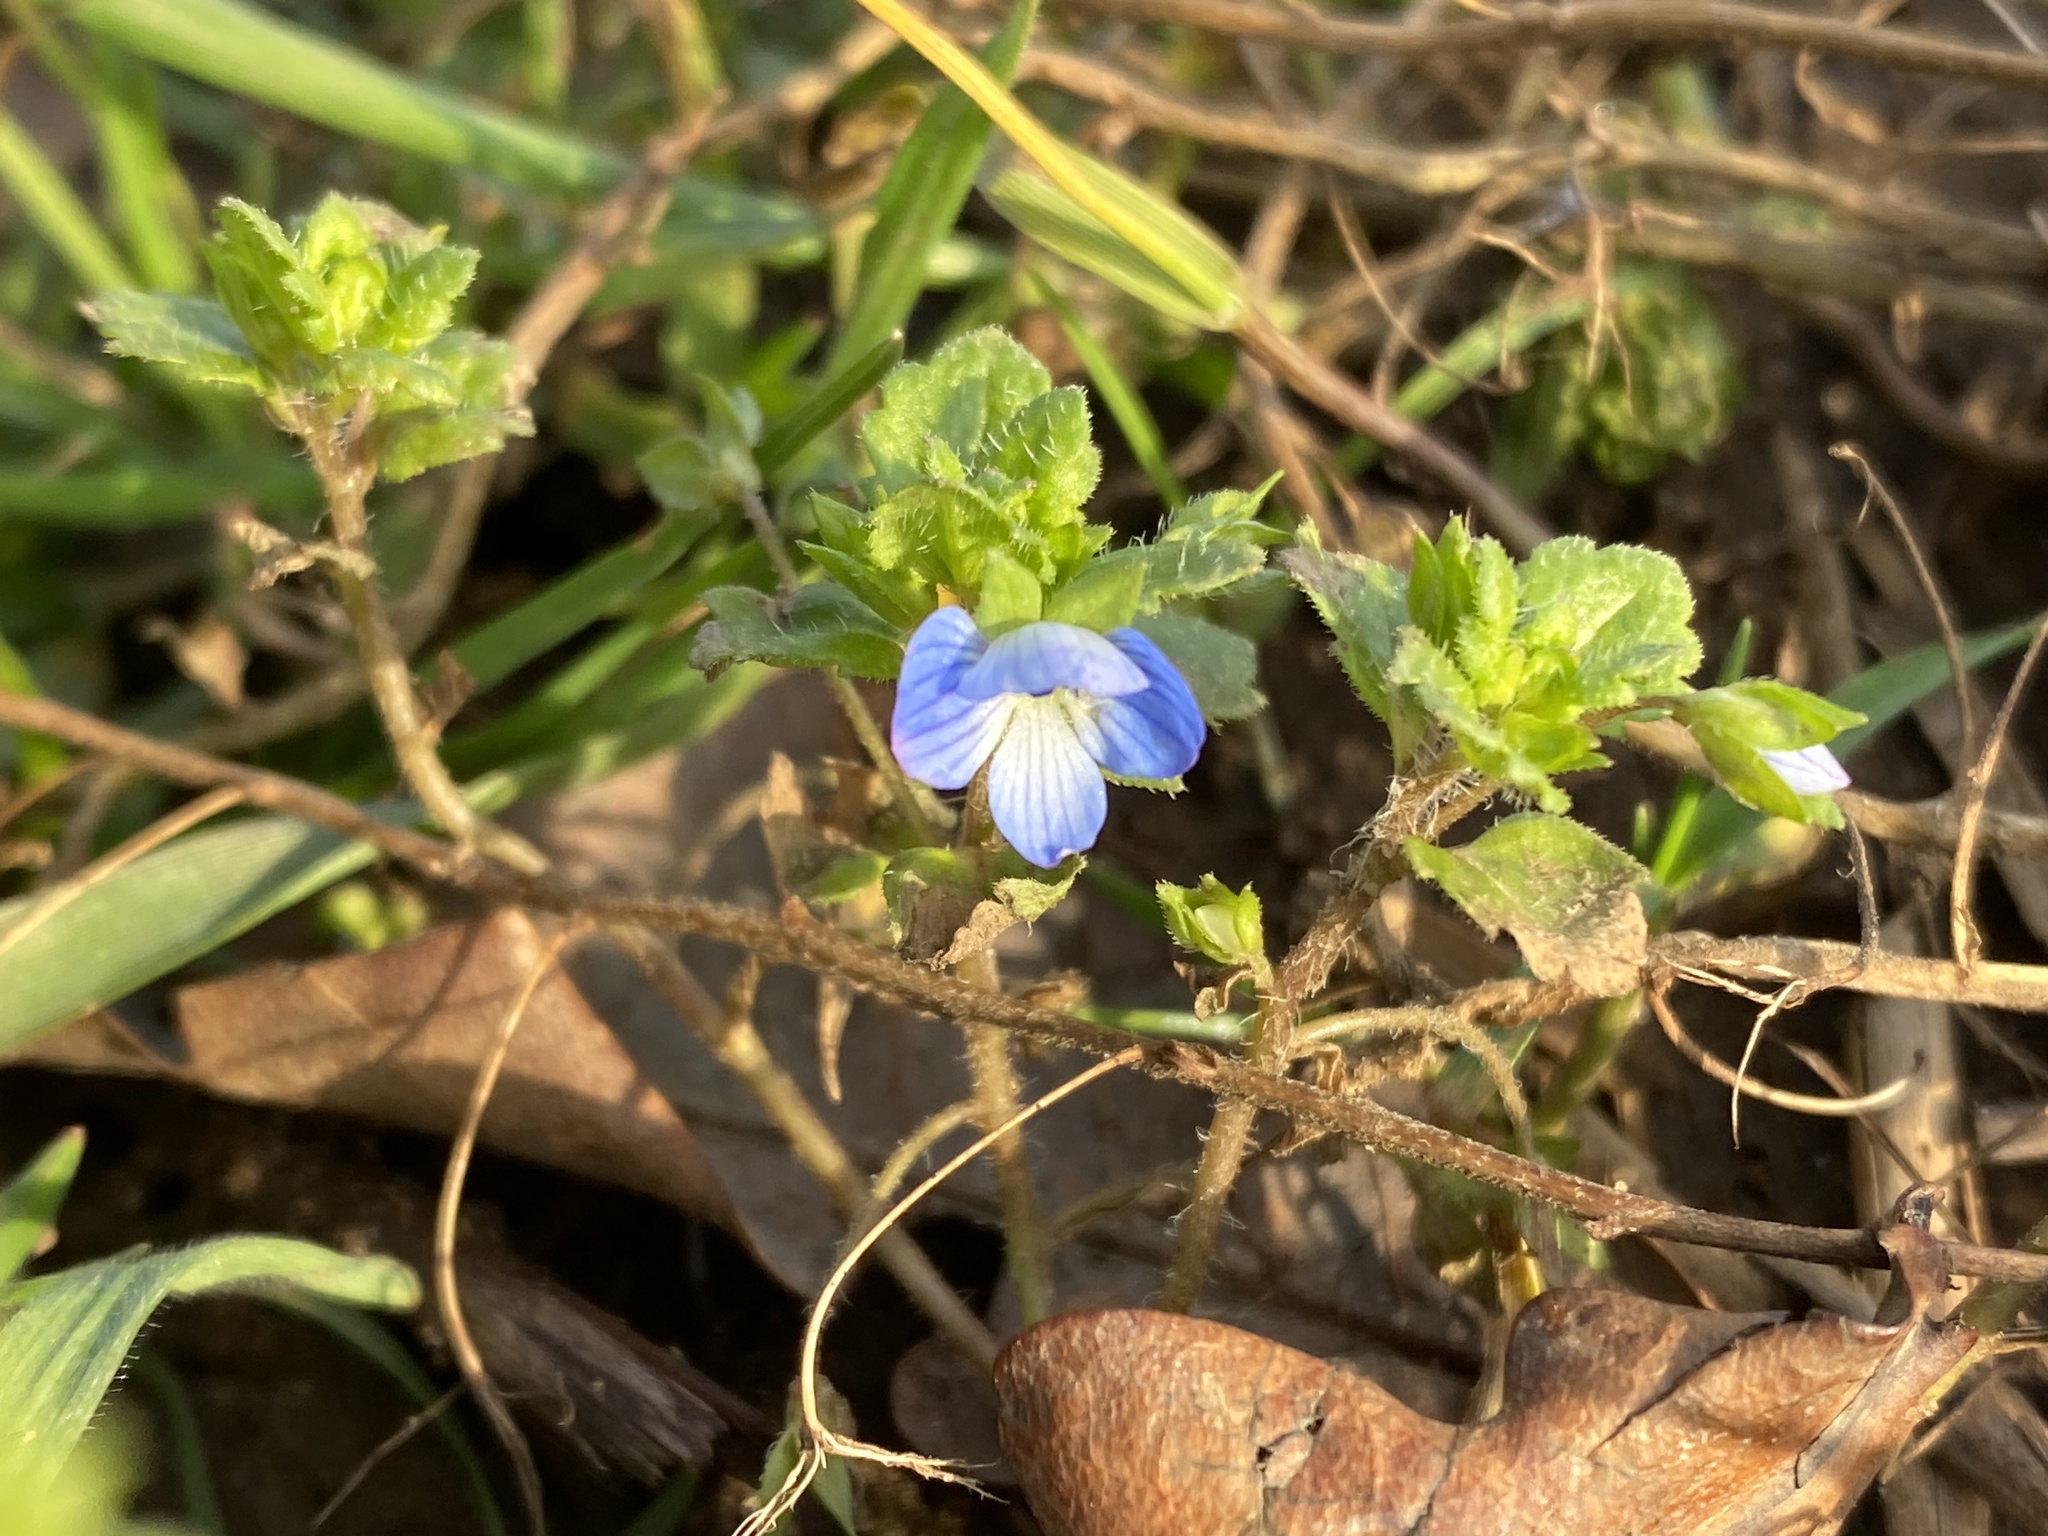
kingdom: Plantae
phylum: Tracheophyta
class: Magnoliopsida
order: Lamiales
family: Plantaginaceae
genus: Veronica
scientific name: Veronica persica
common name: Common field-speedwell
